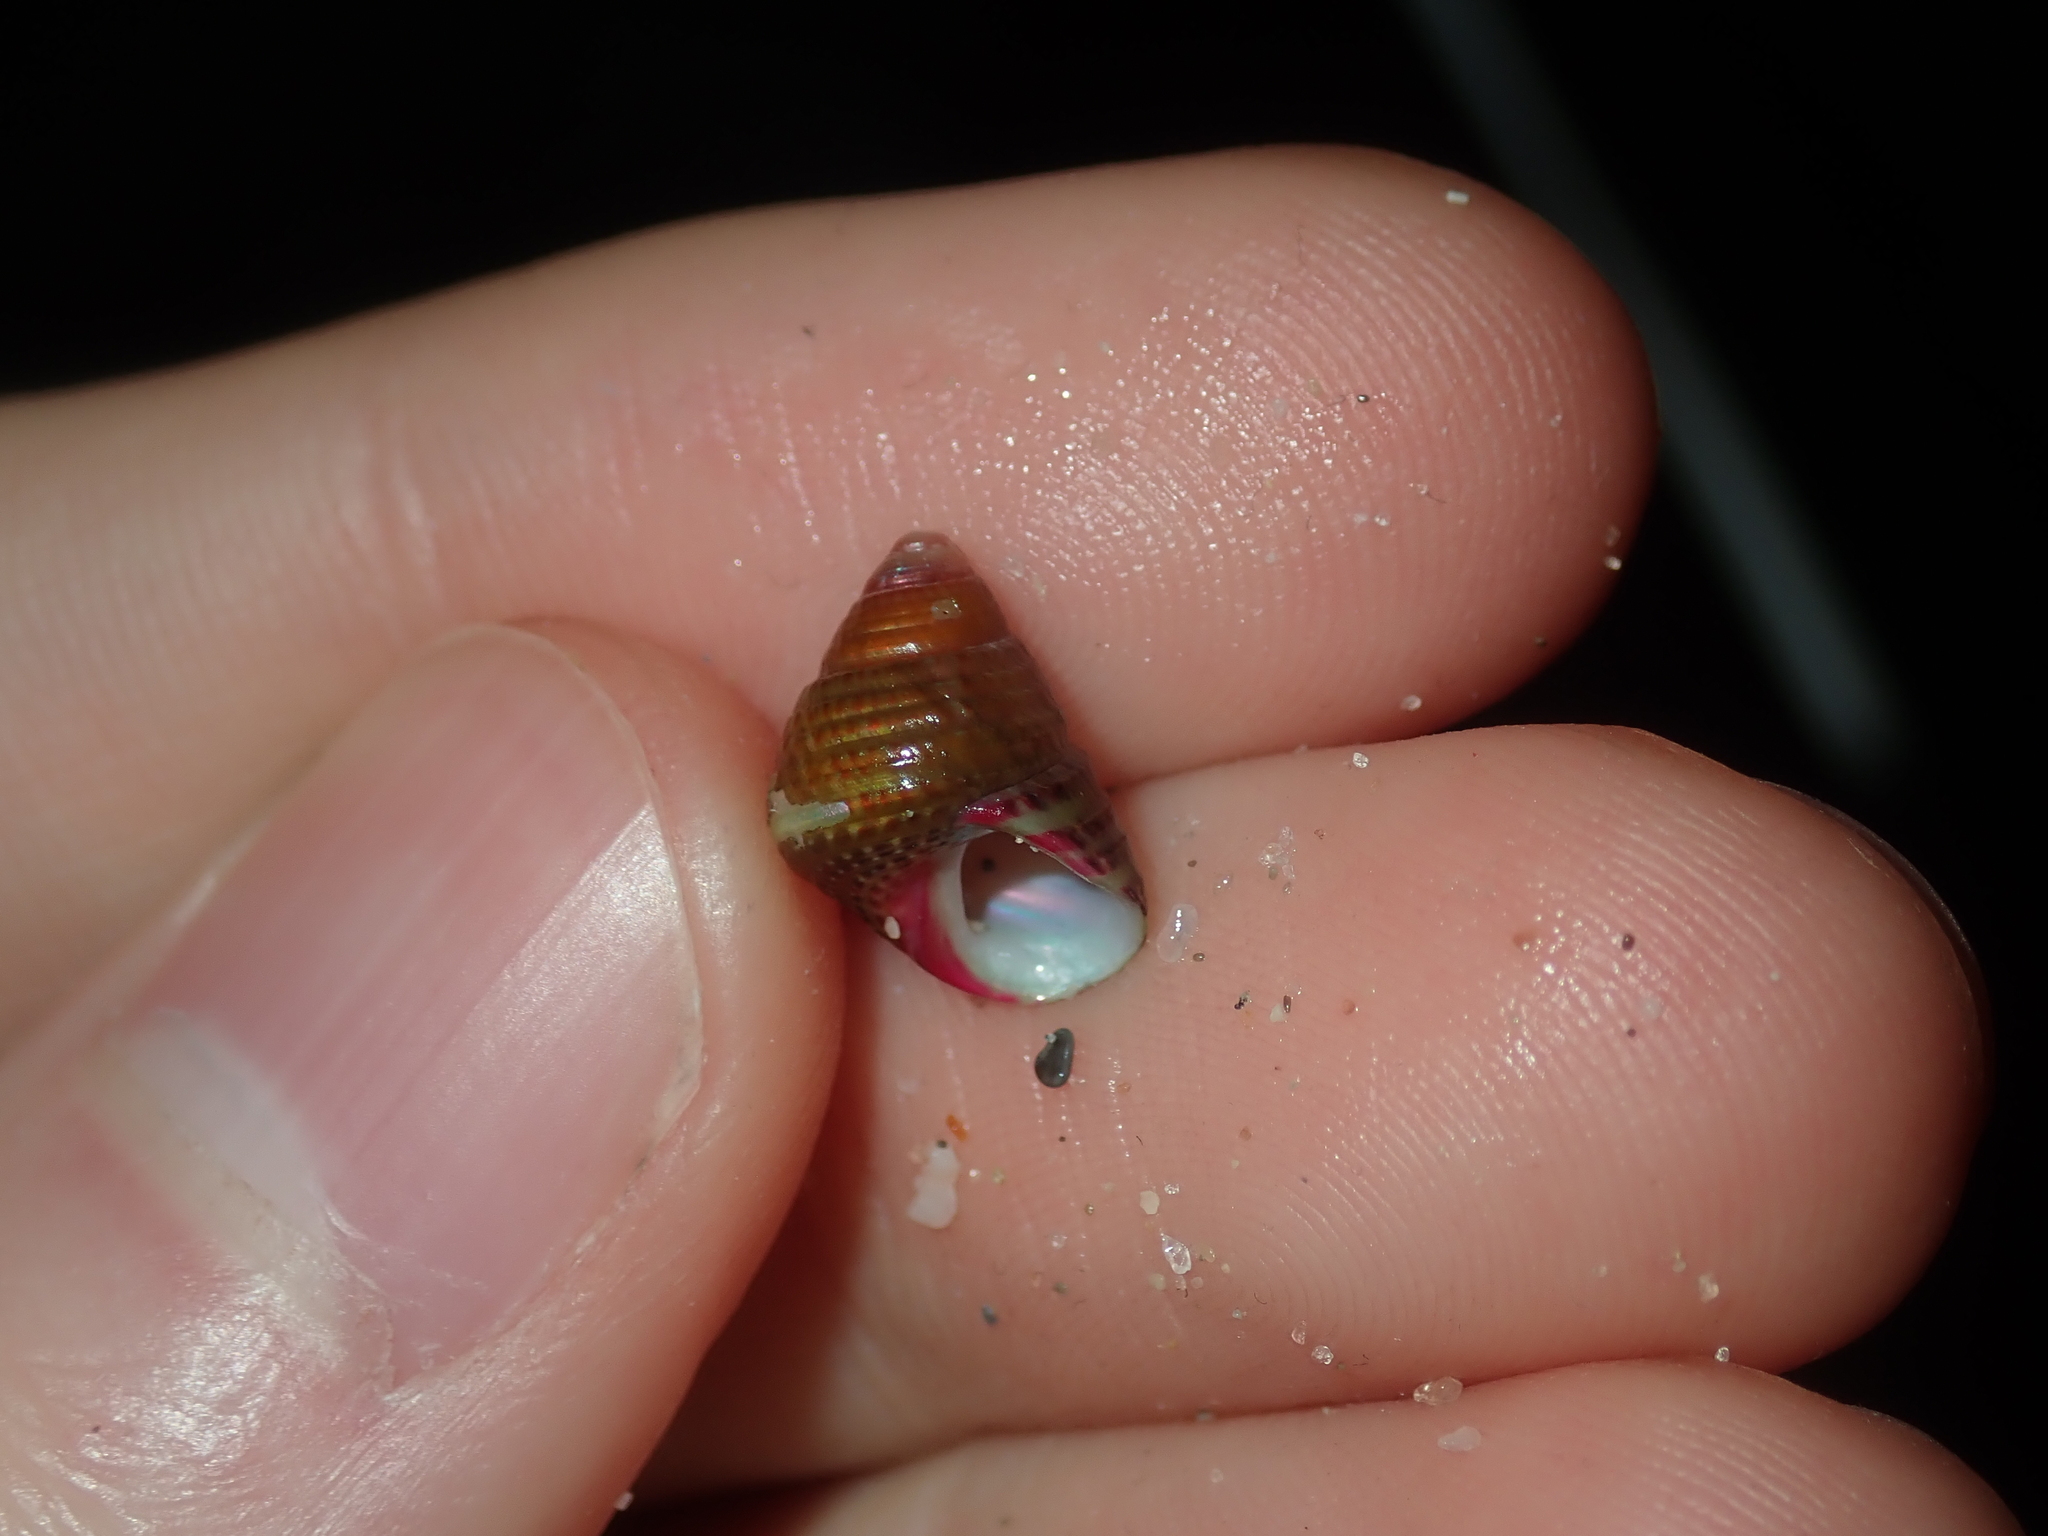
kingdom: Animalia
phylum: Mollusca
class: Gastropoda
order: Trochida
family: Trochidae
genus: Prothalotia
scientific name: Prothalotia pulcherrima
